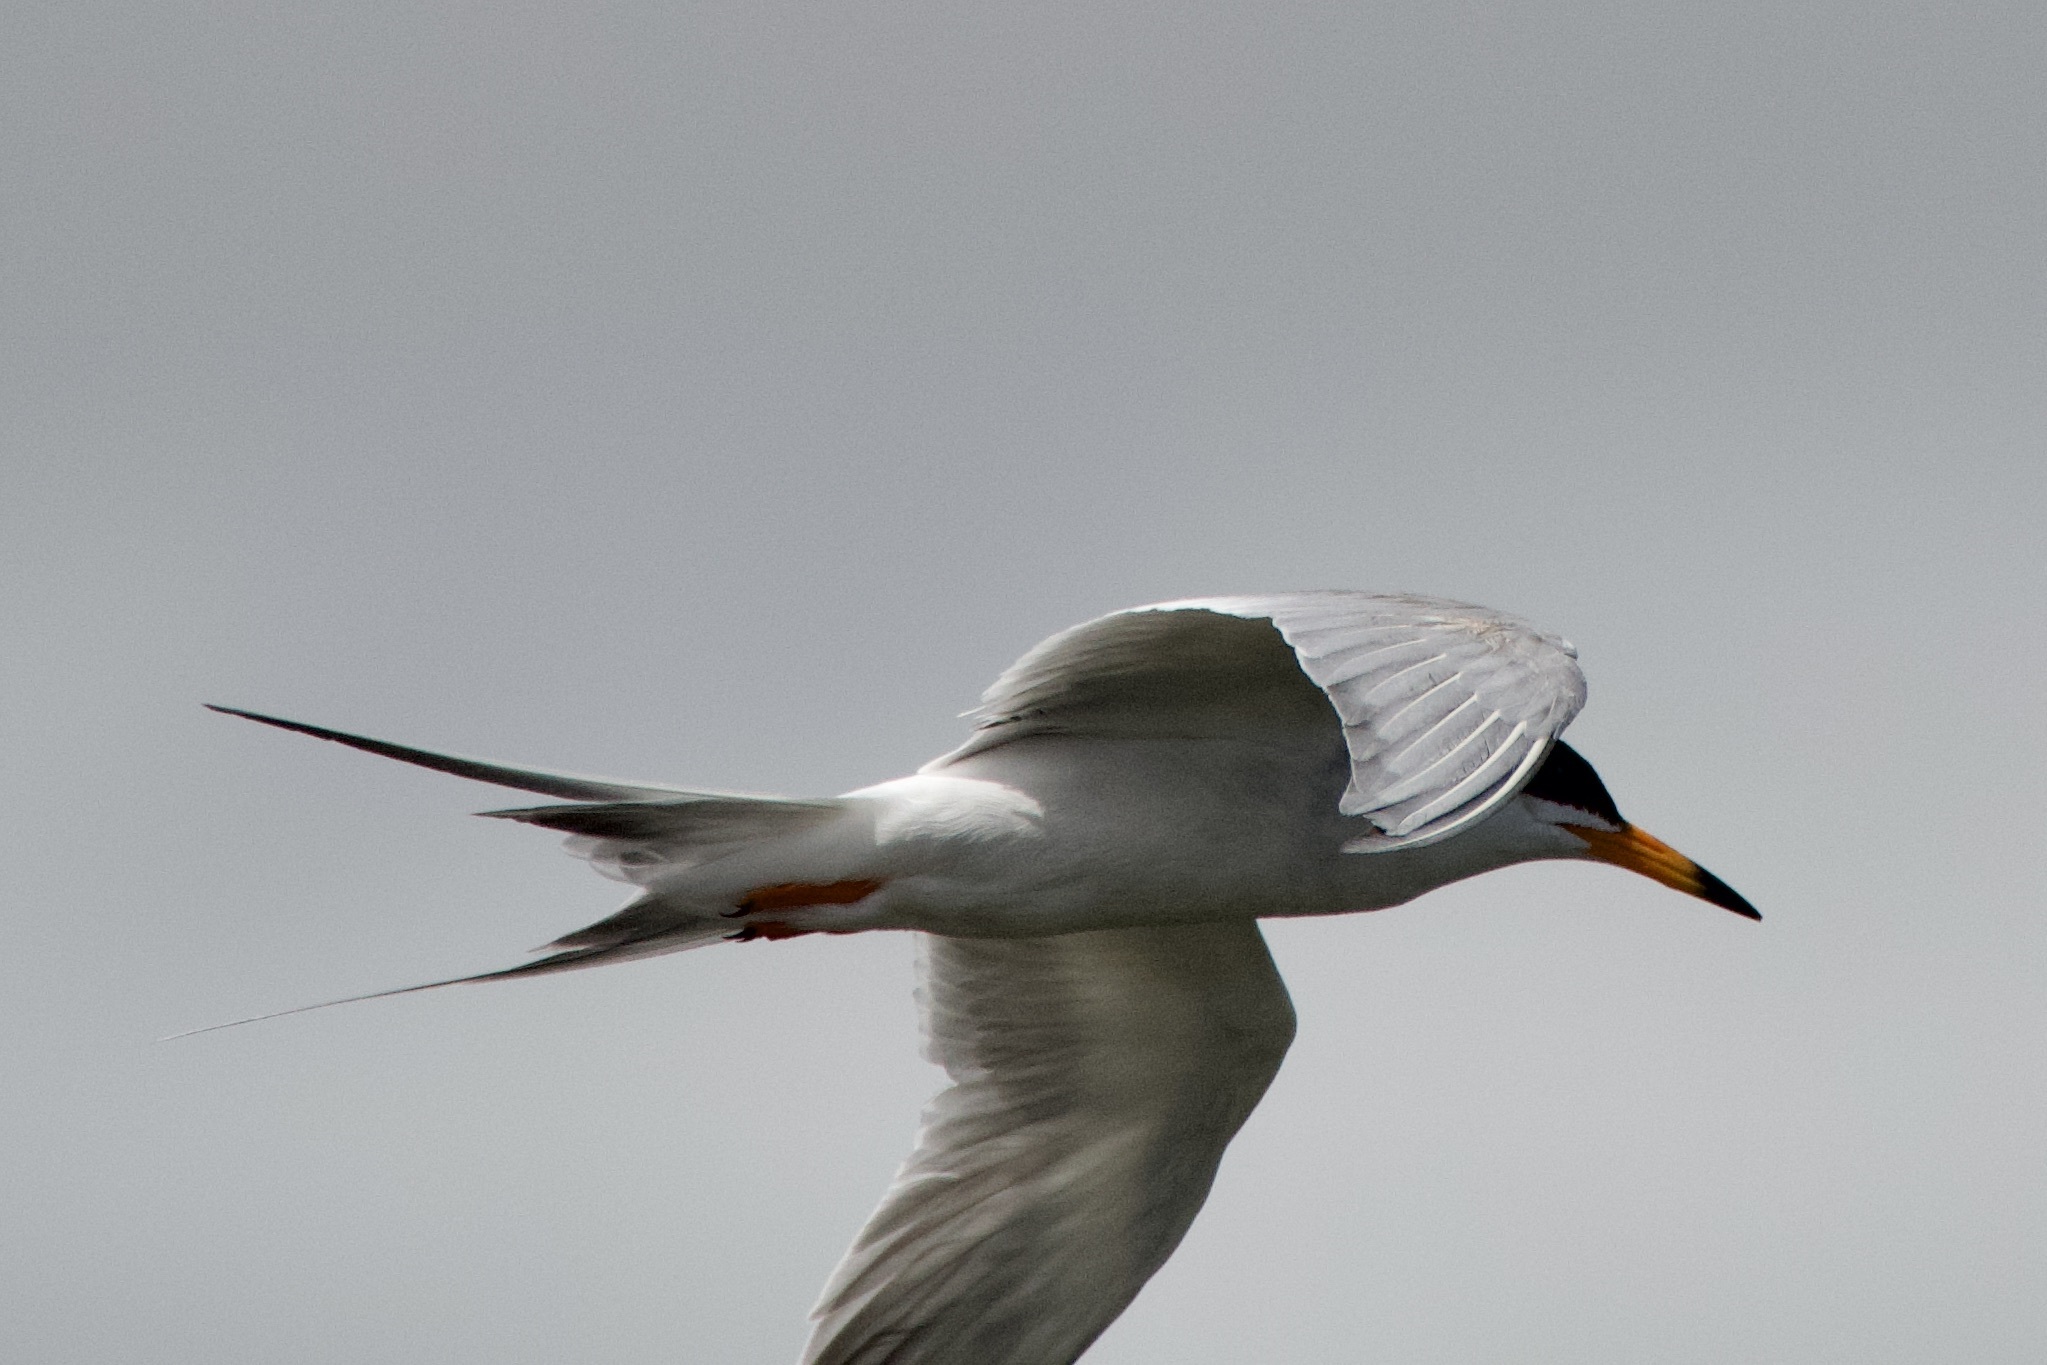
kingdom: Animalia
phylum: Chordata
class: Aves
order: Charadriiformes
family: Laridae
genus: Sterna
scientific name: Sterna forsteri
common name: Forster's tern
